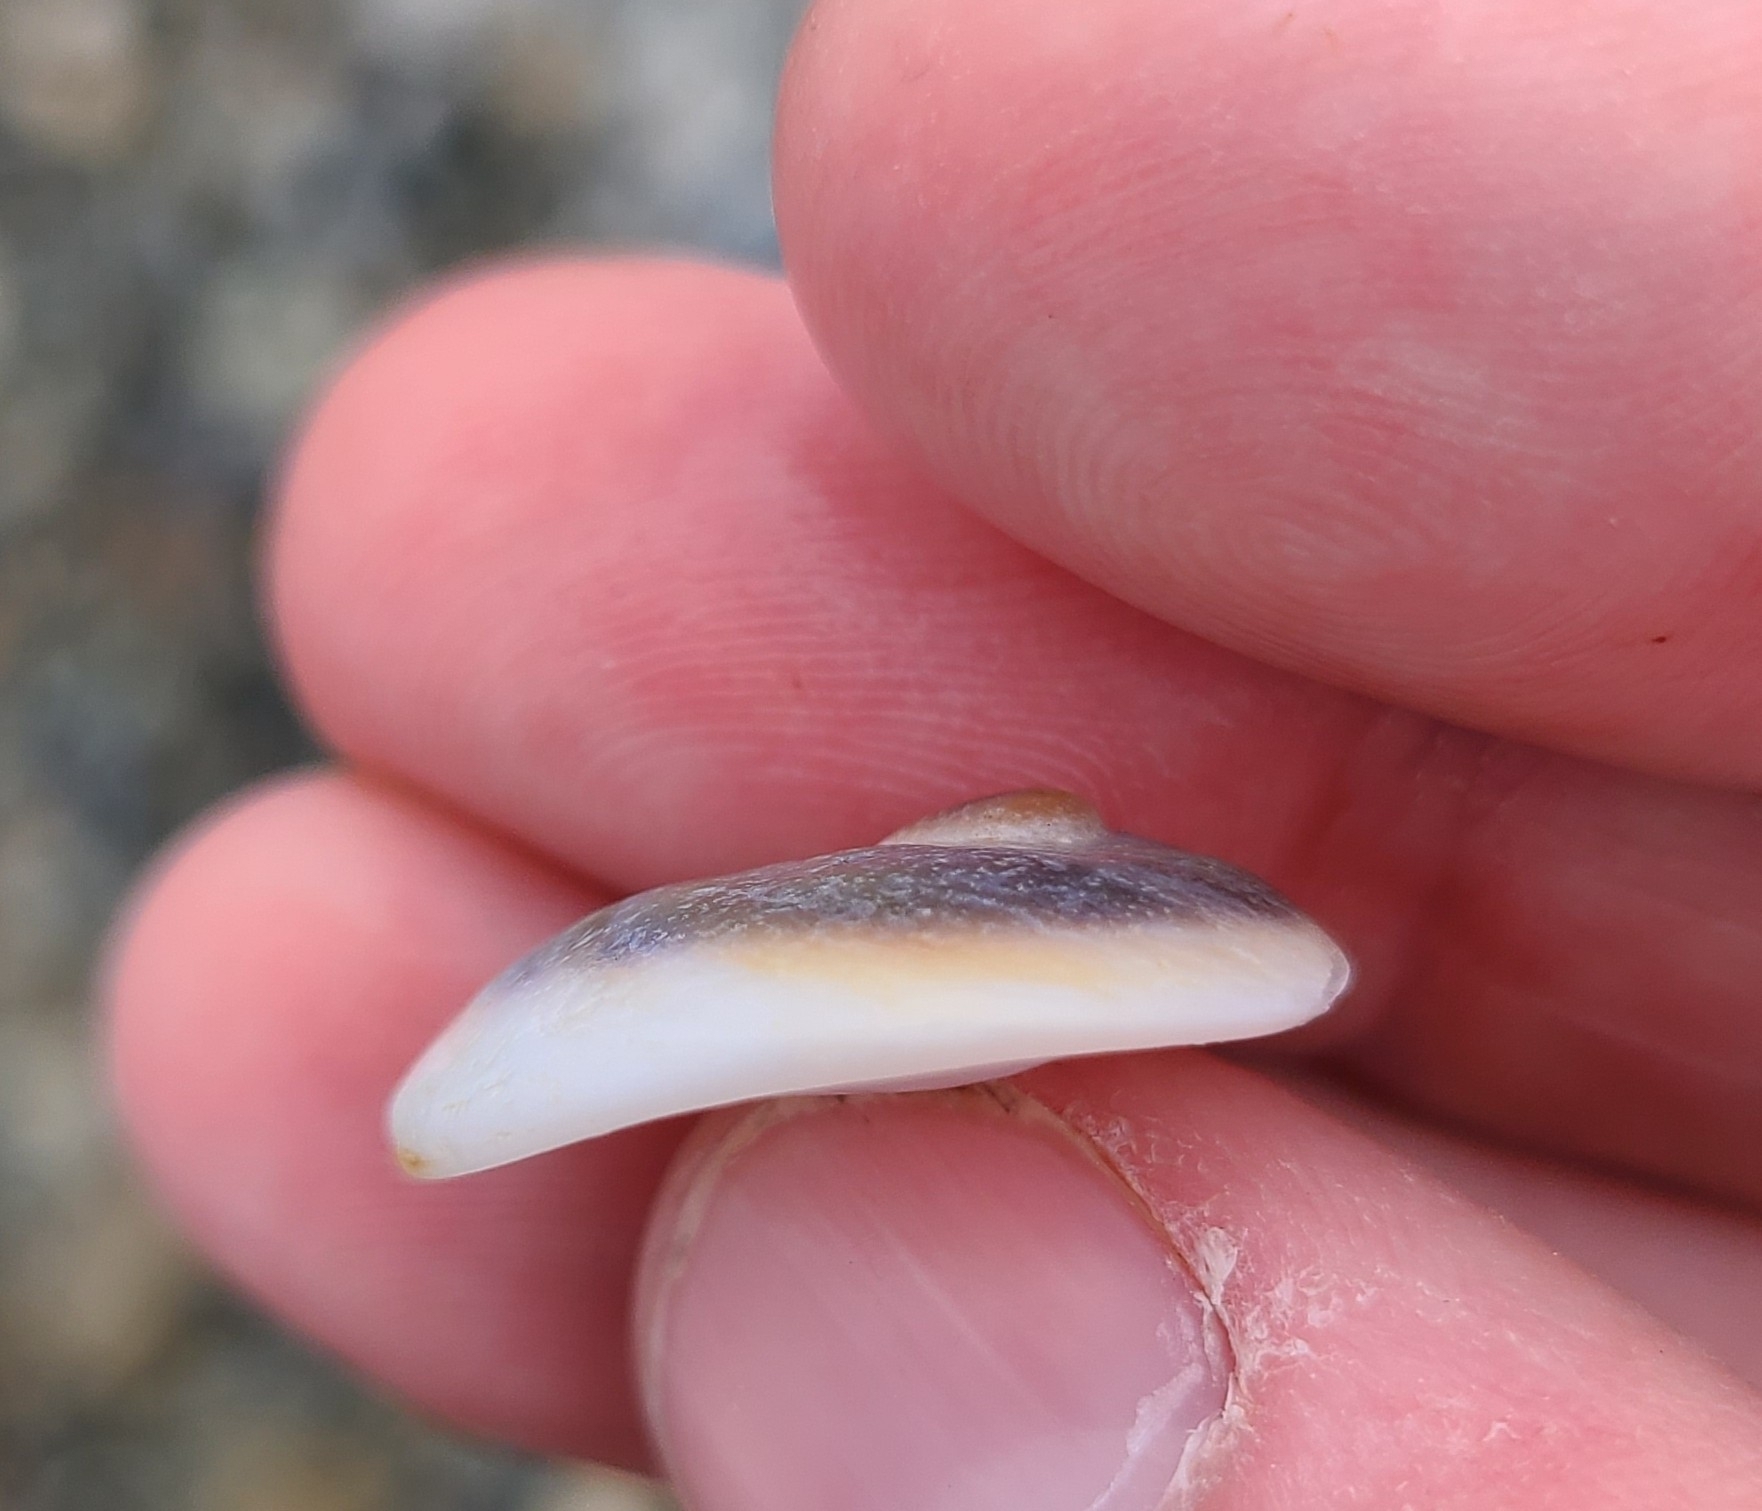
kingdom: Animalia
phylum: Mollusca
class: Gastropoda
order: Littorinimorpha
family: Calyptraeidae
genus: Sigapatella
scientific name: Sigapatella novaezelandiae
